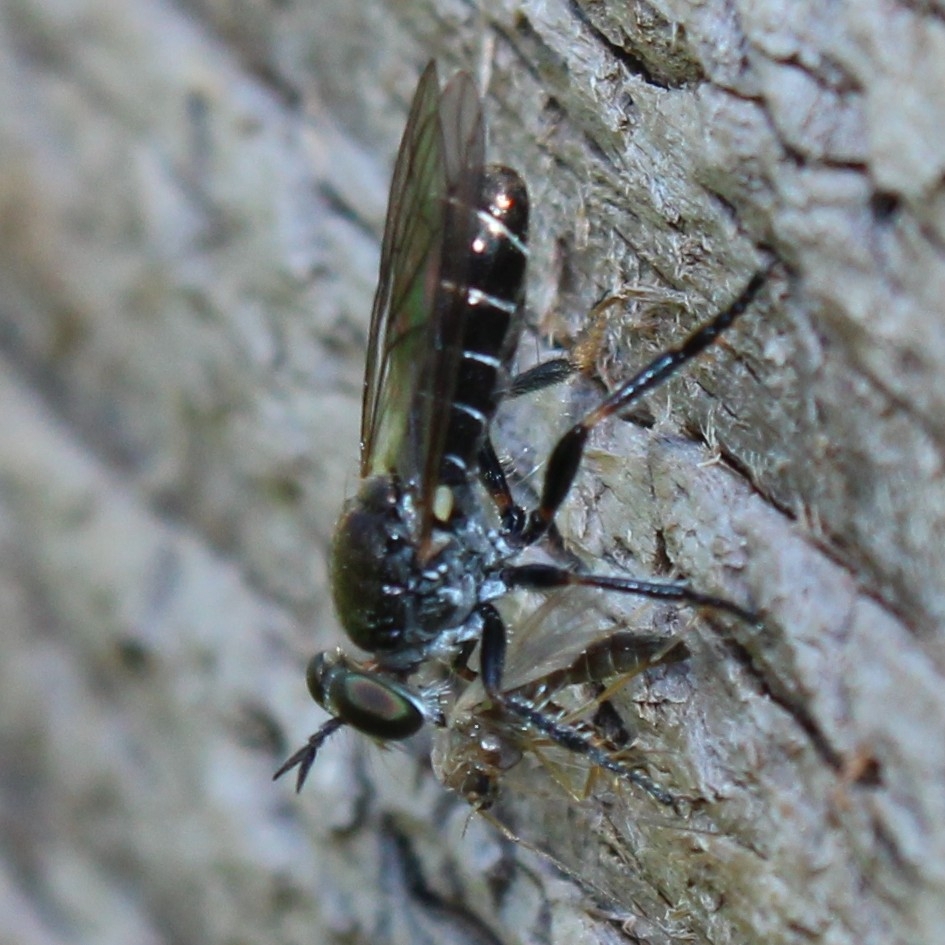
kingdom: Animalia
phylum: Arthropoda
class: Insecta
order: Diptera
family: Asilidae
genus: Atomosia
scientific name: Atomosia puella
